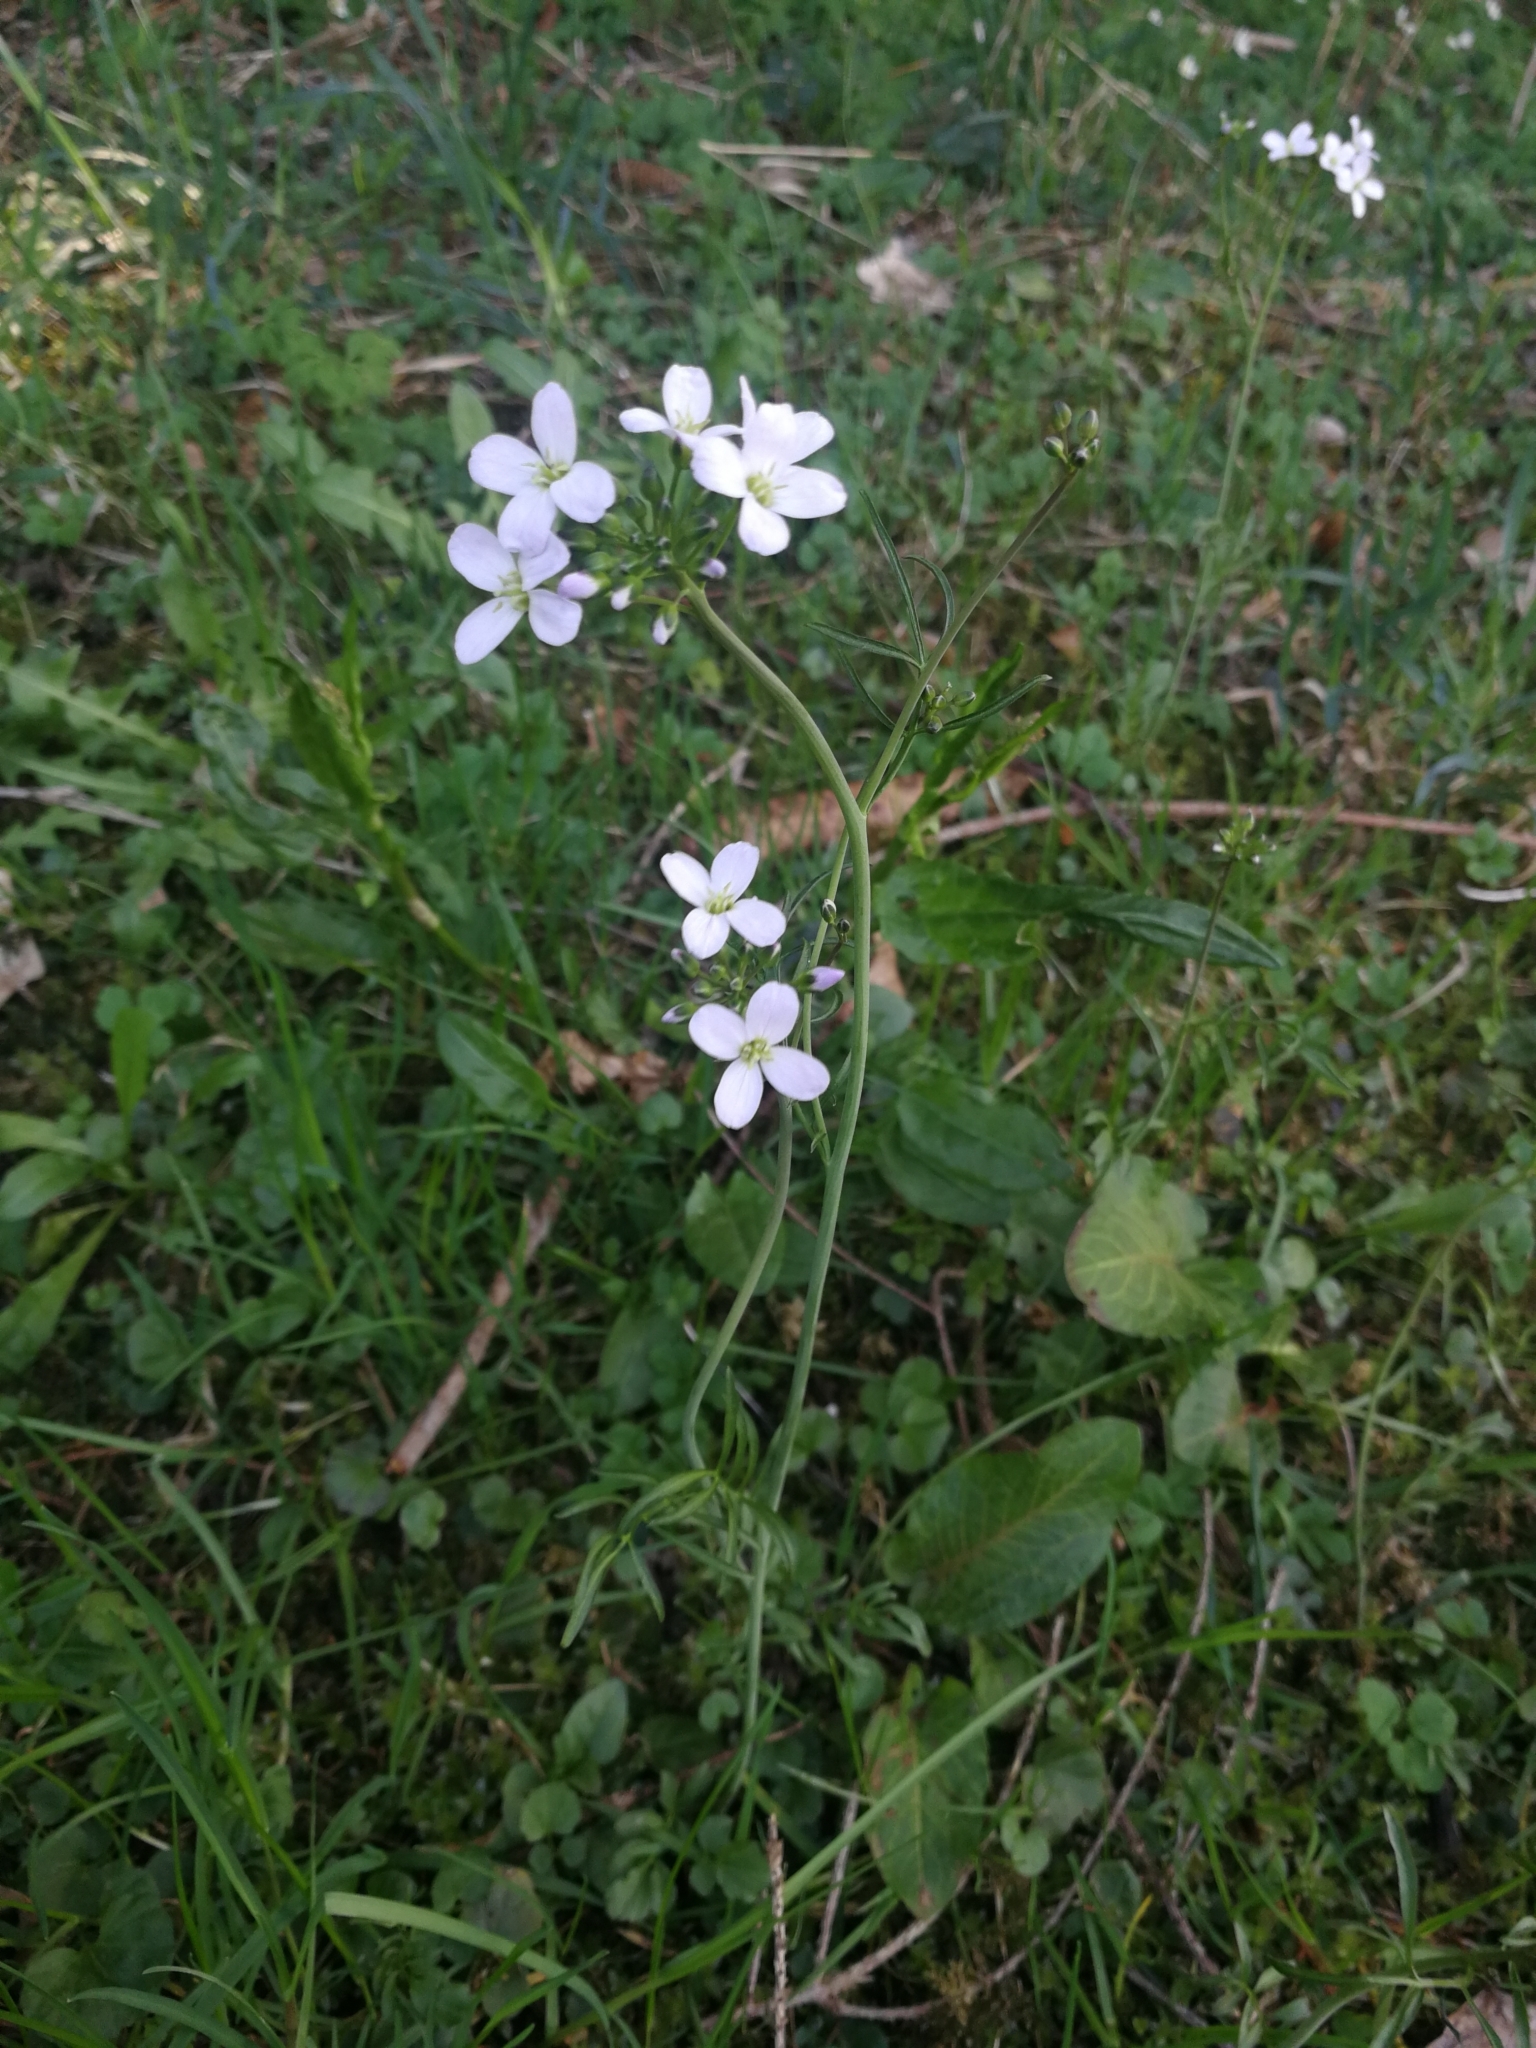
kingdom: Plantae
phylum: Tracheophyta
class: Magnoliopsida
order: Brassicales
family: Brassicaceae
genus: Cardamine
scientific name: Cardamine pratensis
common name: Cuckoo flower
